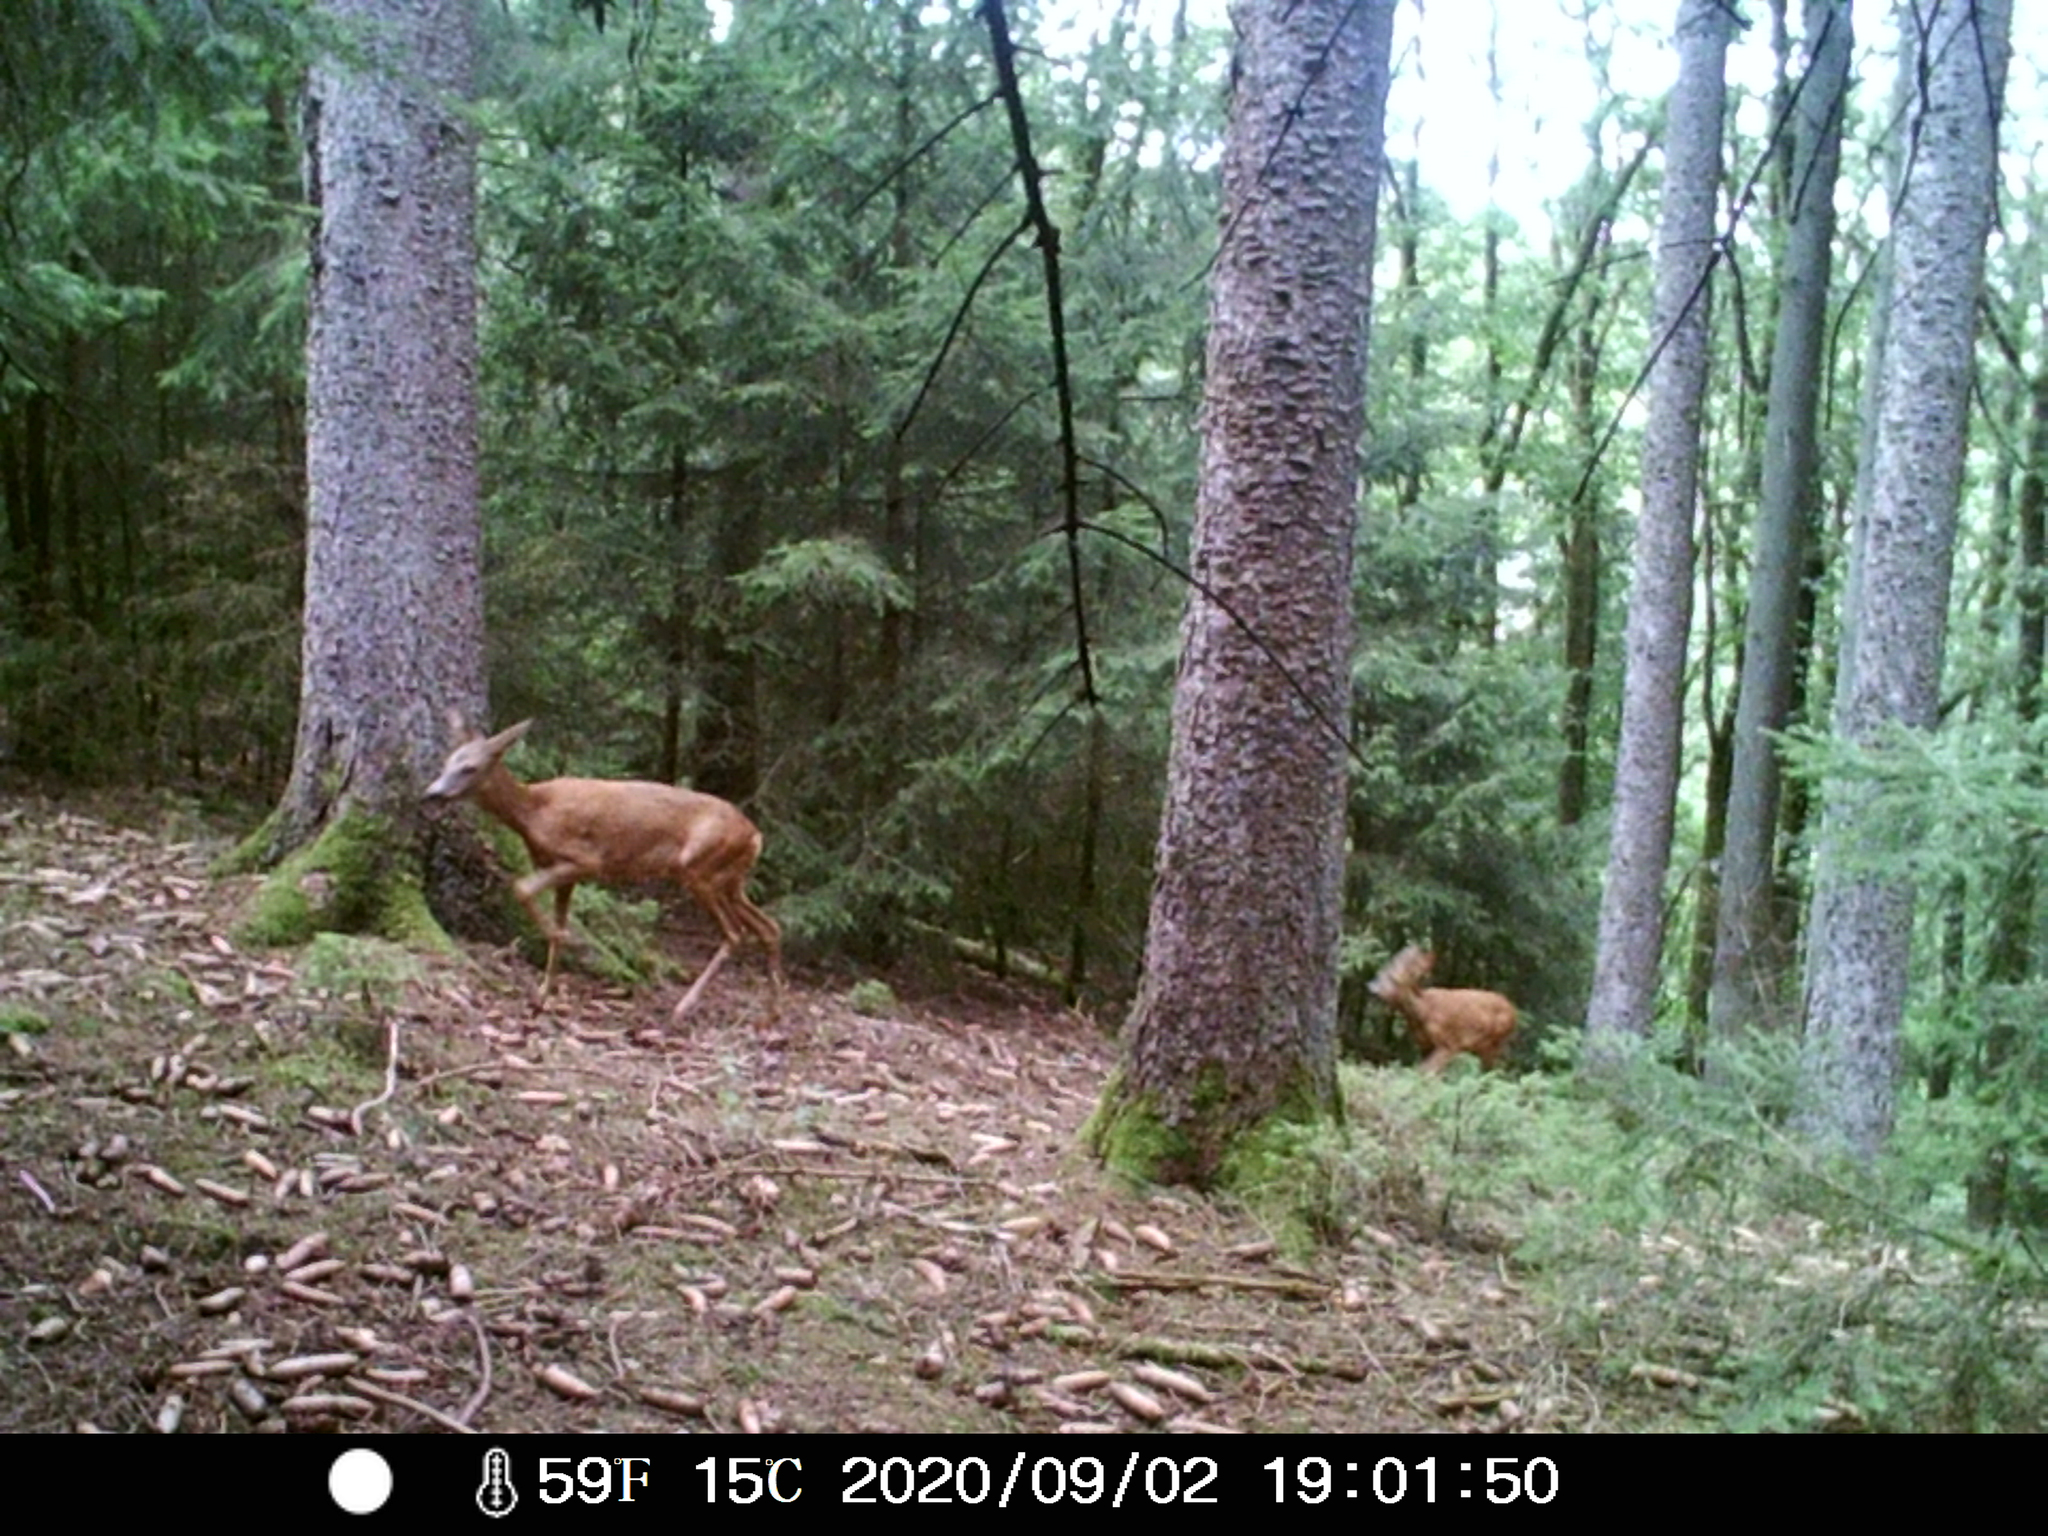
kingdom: Animalia
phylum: Chordata
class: Mammalia
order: Artiodactyla
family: Cervidae
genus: Capreolus
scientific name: Capreolus capreolus
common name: Western roe deer
